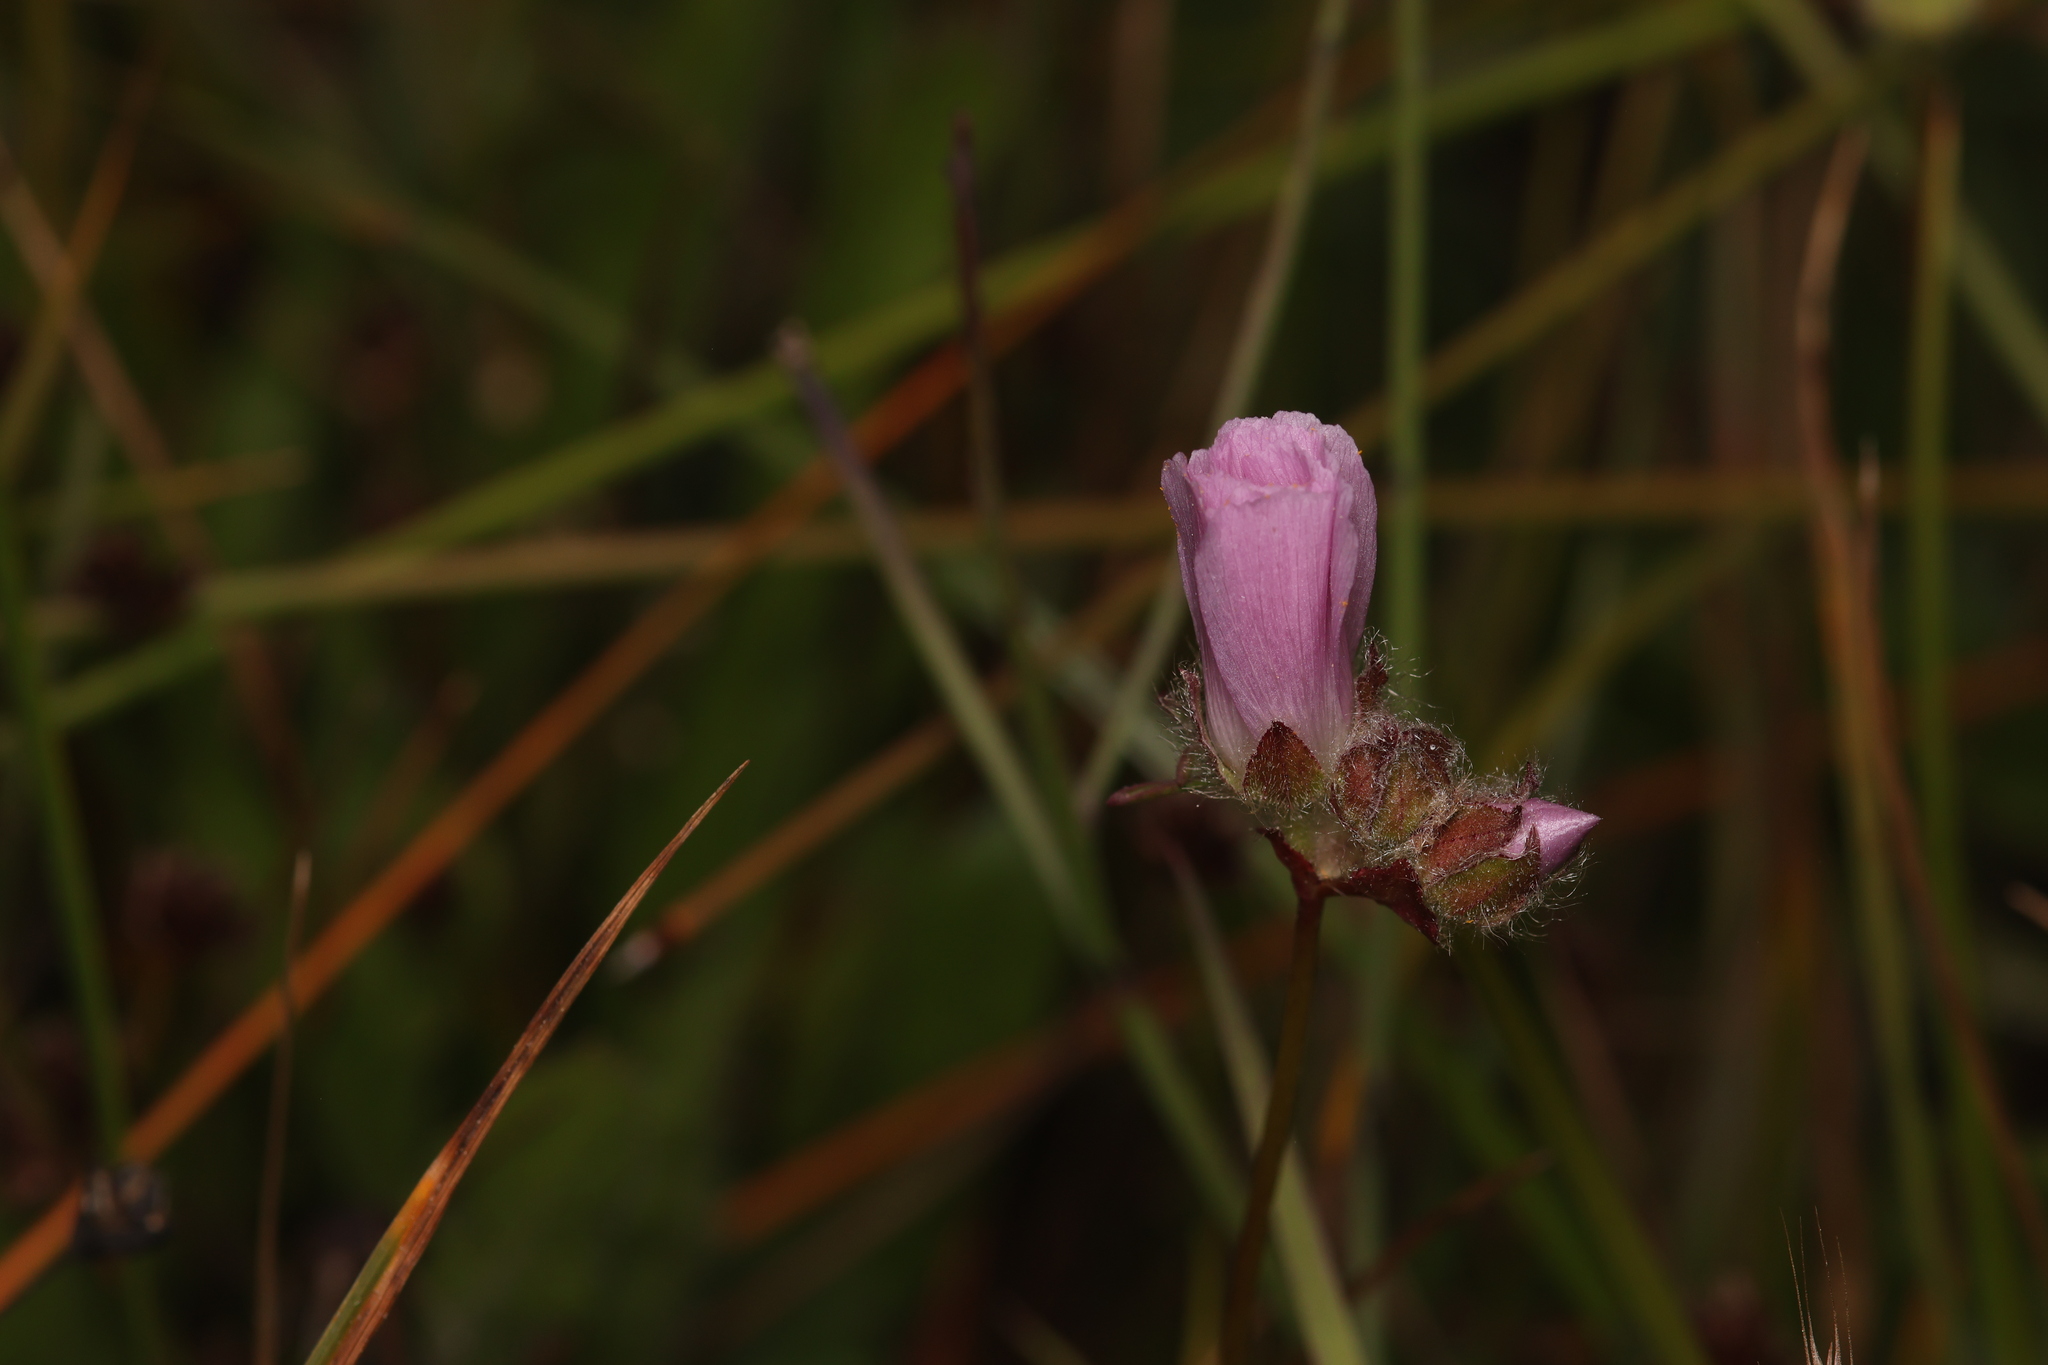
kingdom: Plantae
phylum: Tracheophyta
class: Magnoliopsida
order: Malvales
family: Malvaceae
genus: Sidalcea
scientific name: Sidalcea calycosa
